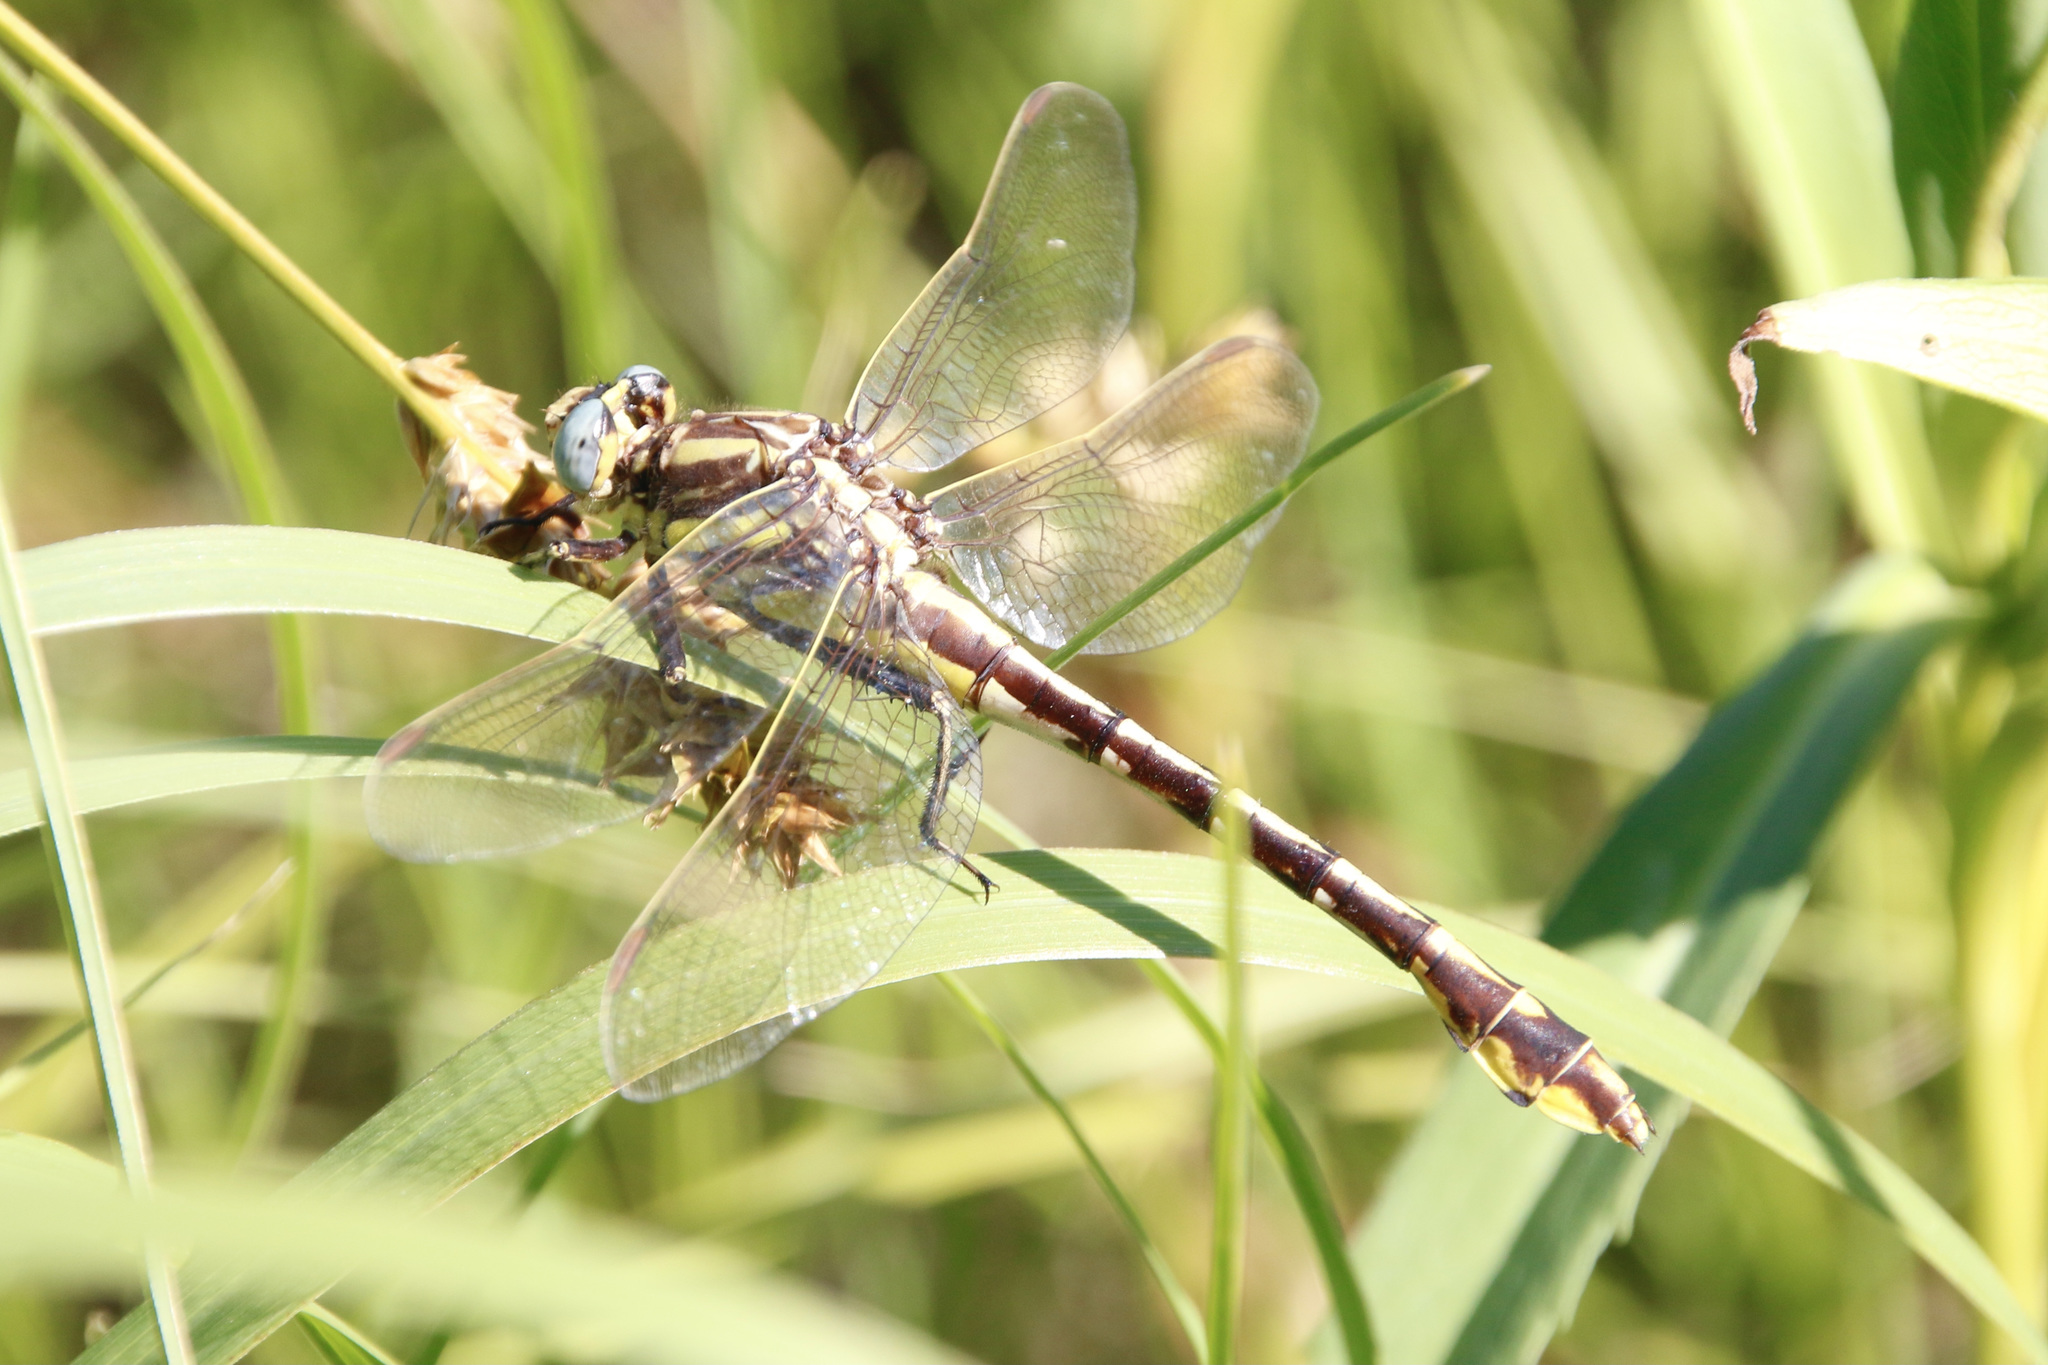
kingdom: Animalia
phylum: Arthropoda
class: Insecta
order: Odonata
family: Gomphidae
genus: Gomphurus
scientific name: Gomphurus externus
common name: Plains clubtail
